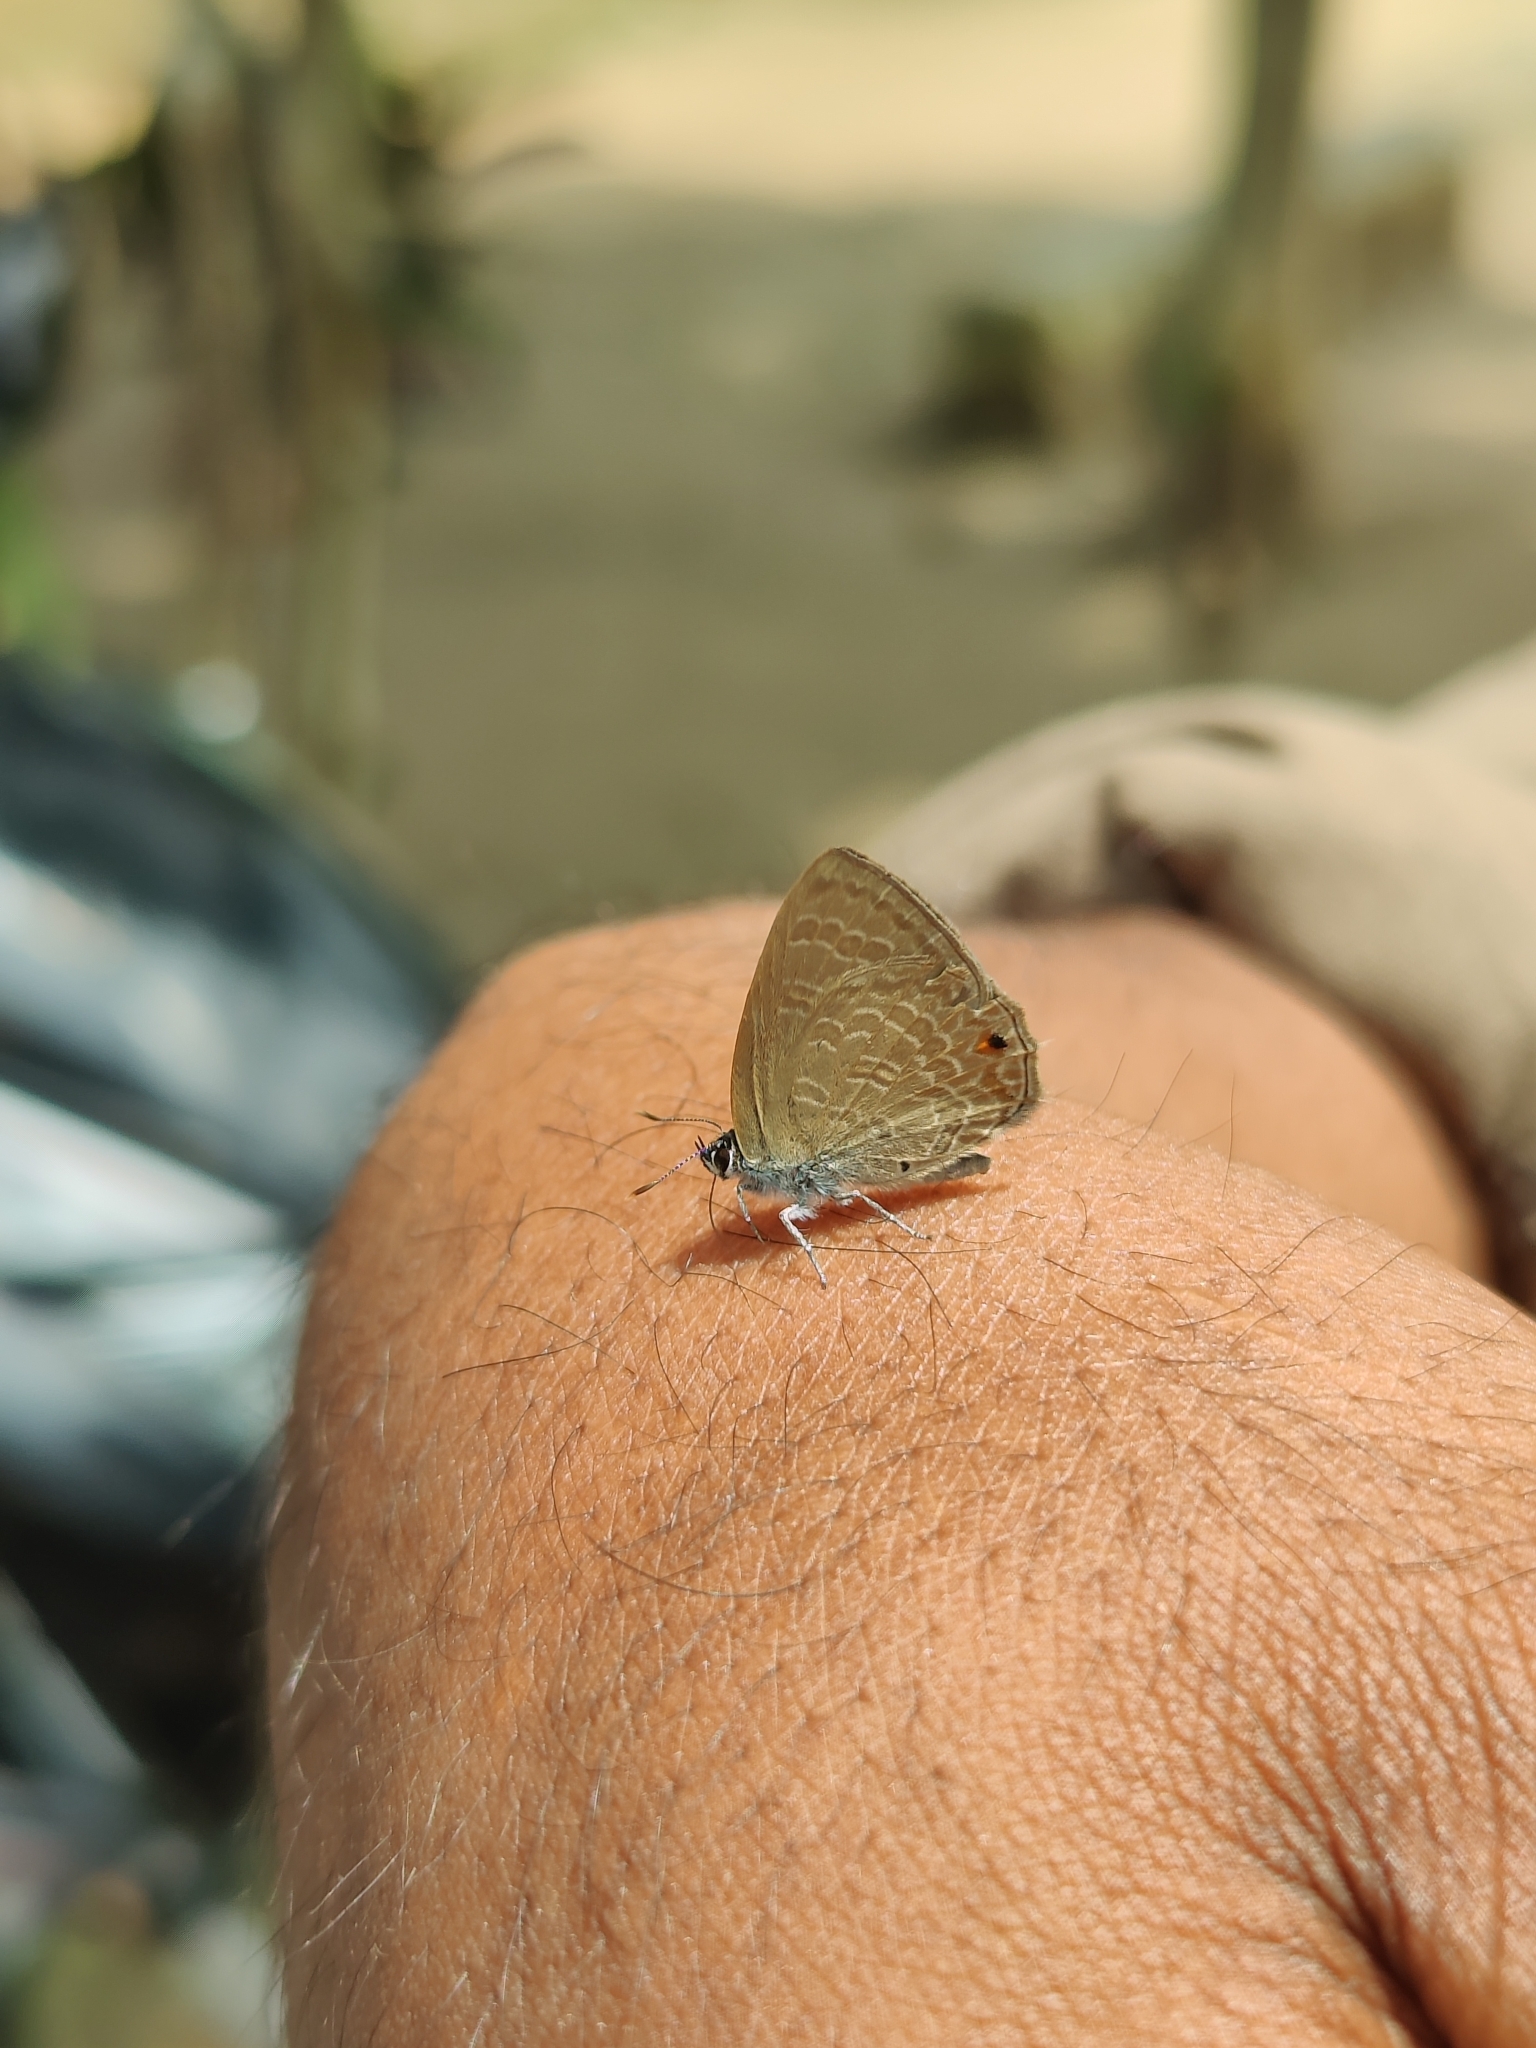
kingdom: Animalia
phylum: Arthropoda
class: Insecta
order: Lepidoptera
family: Lycaenidae
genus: Anthene
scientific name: Anthene emolus
